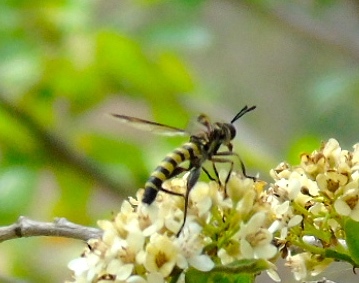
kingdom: Animalia
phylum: Arthropoda
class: Insecta
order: Diptera
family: Mydidae
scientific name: Mydidae
